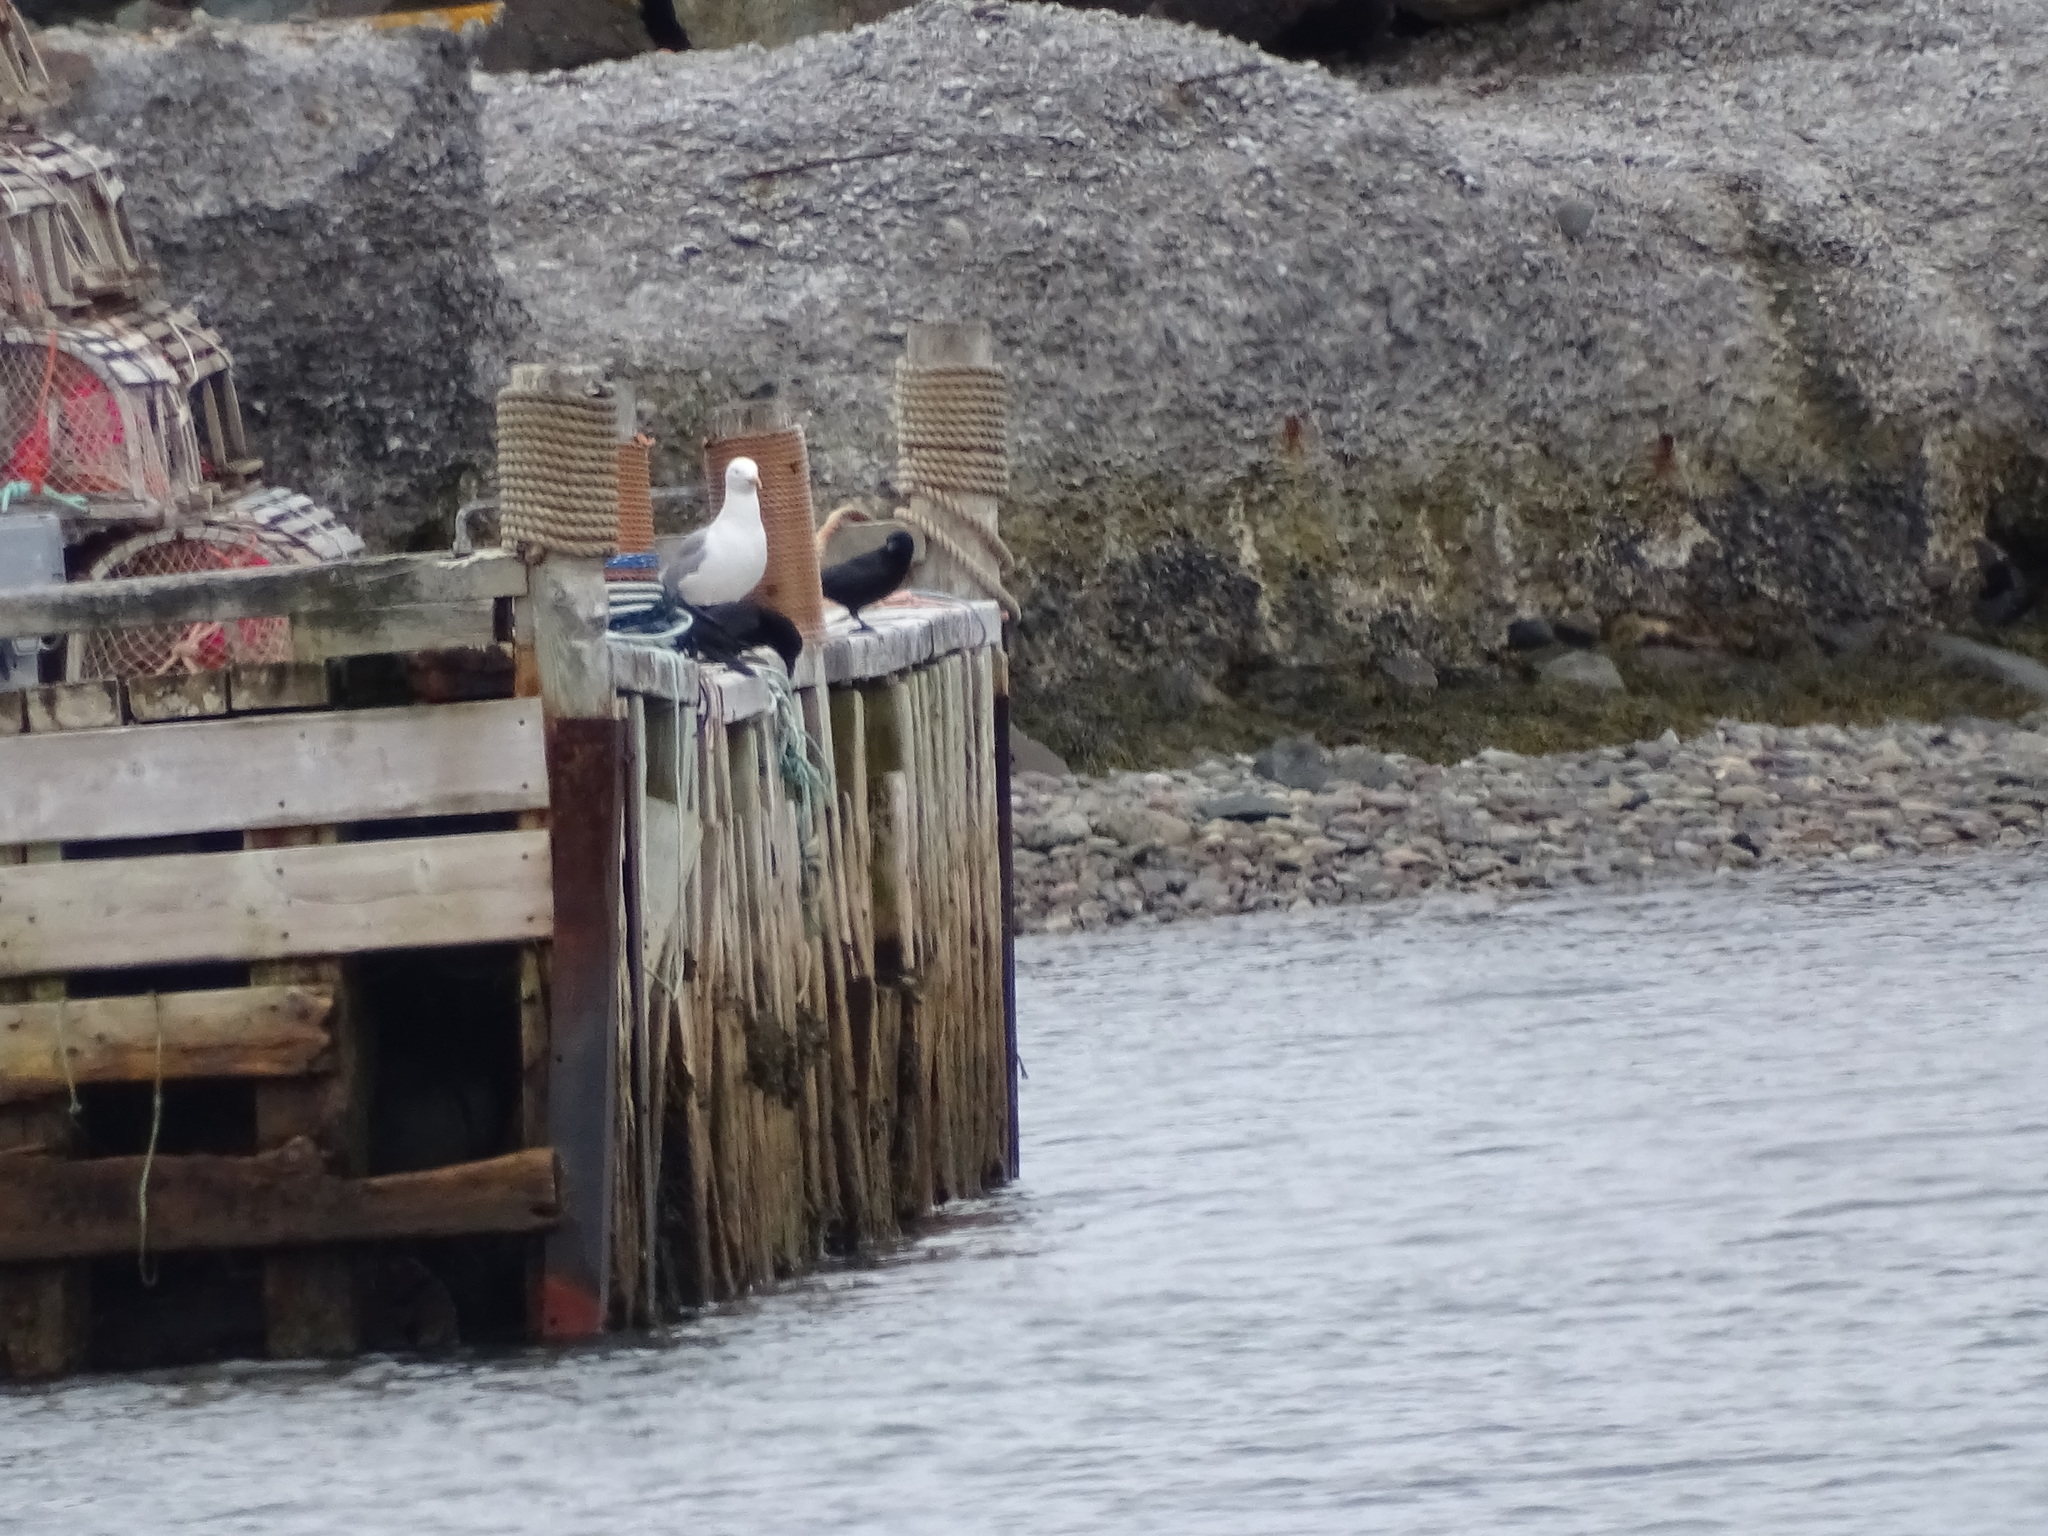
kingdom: Animalia
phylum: Chordata
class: Aves
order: Passeriformes
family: Corvidae
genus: Corvus
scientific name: Corvus brachyrhynchos
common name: American crow
